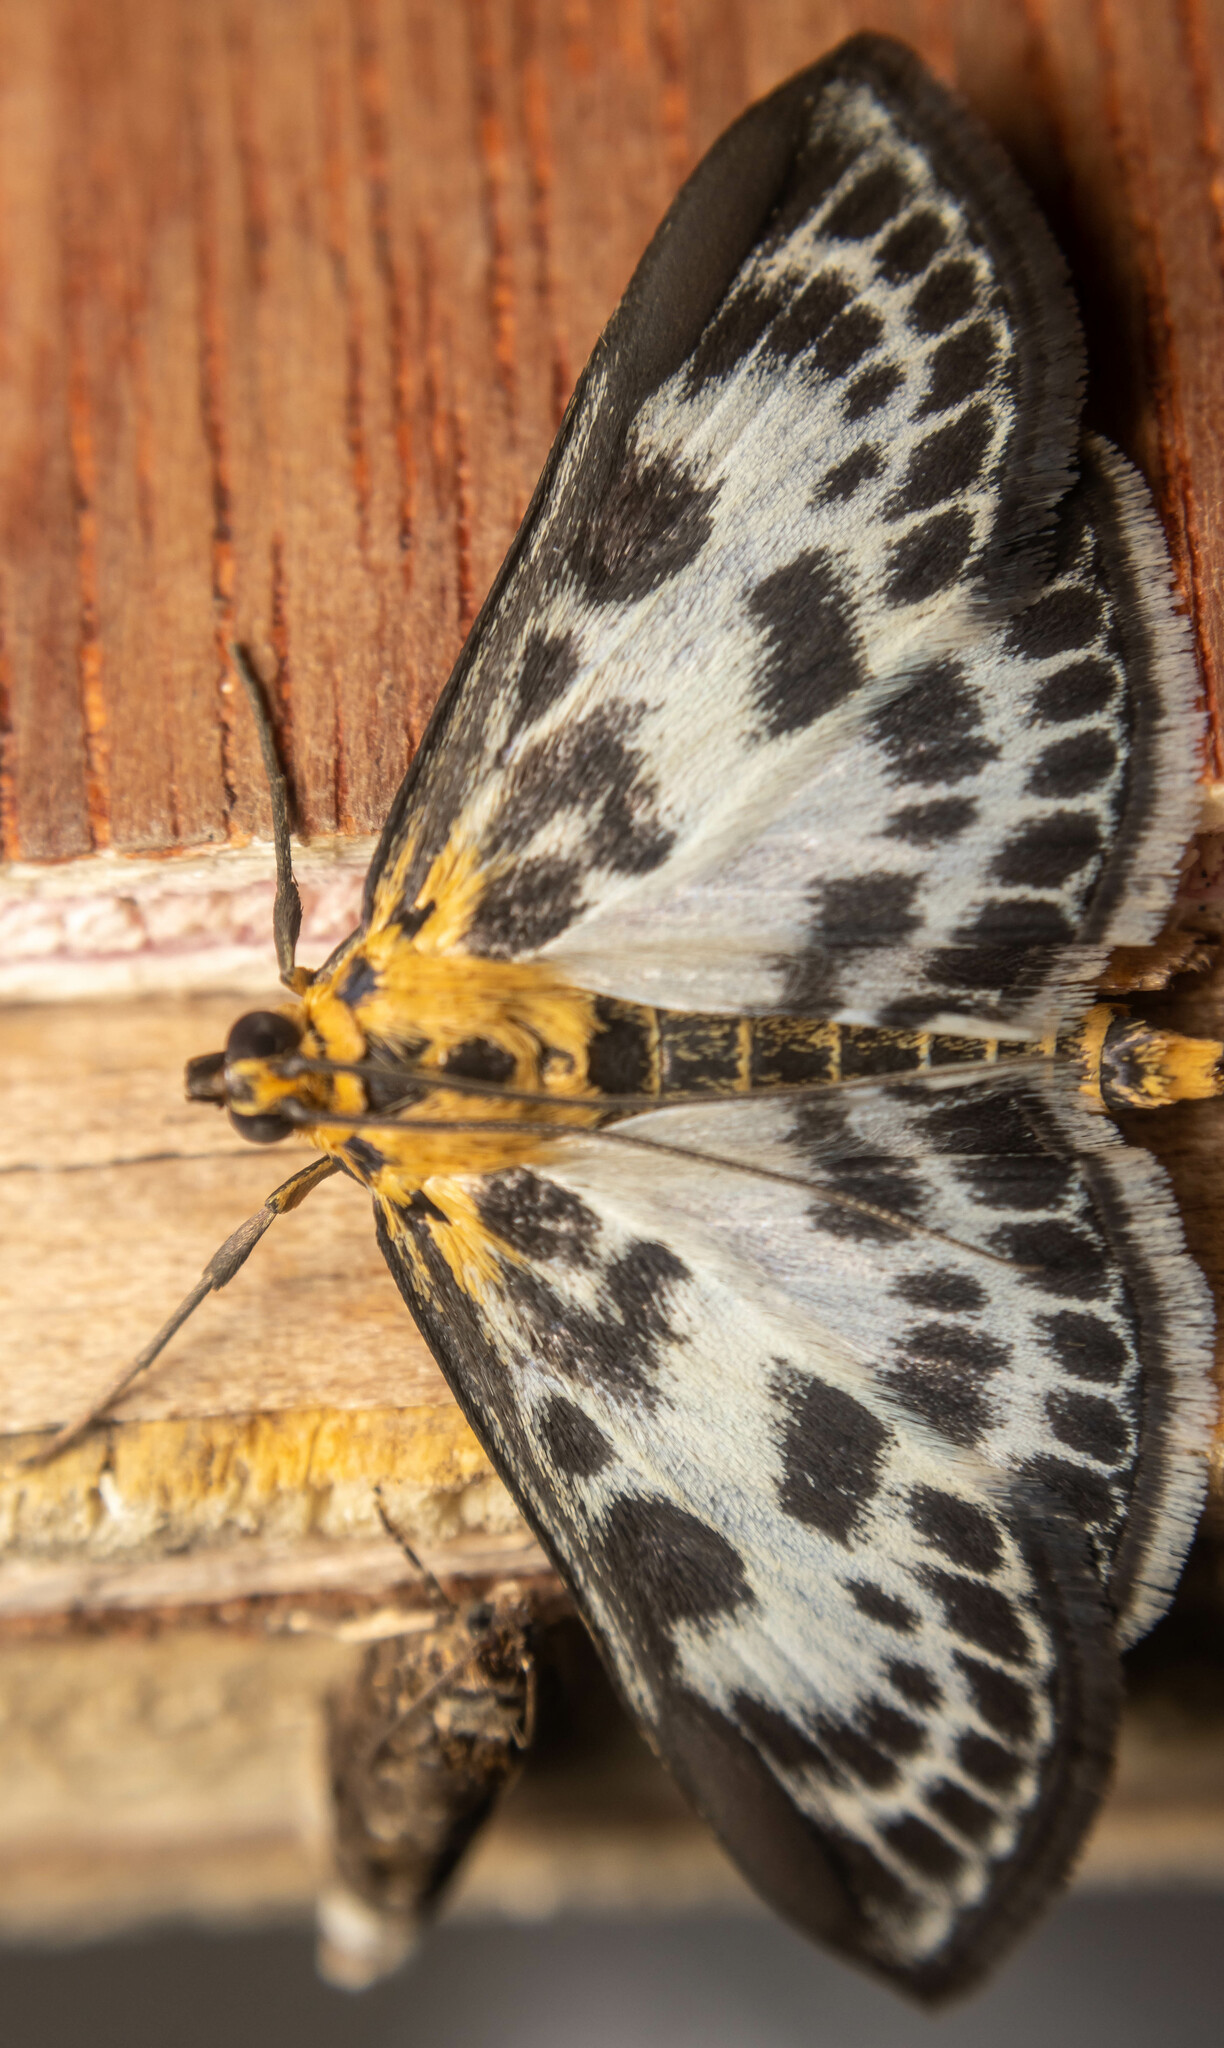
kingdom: Animalia
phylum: Arthropoda
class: Insecta
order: Lepidoptera
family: Crambidae
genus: Anania
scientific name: Anania hortulata
